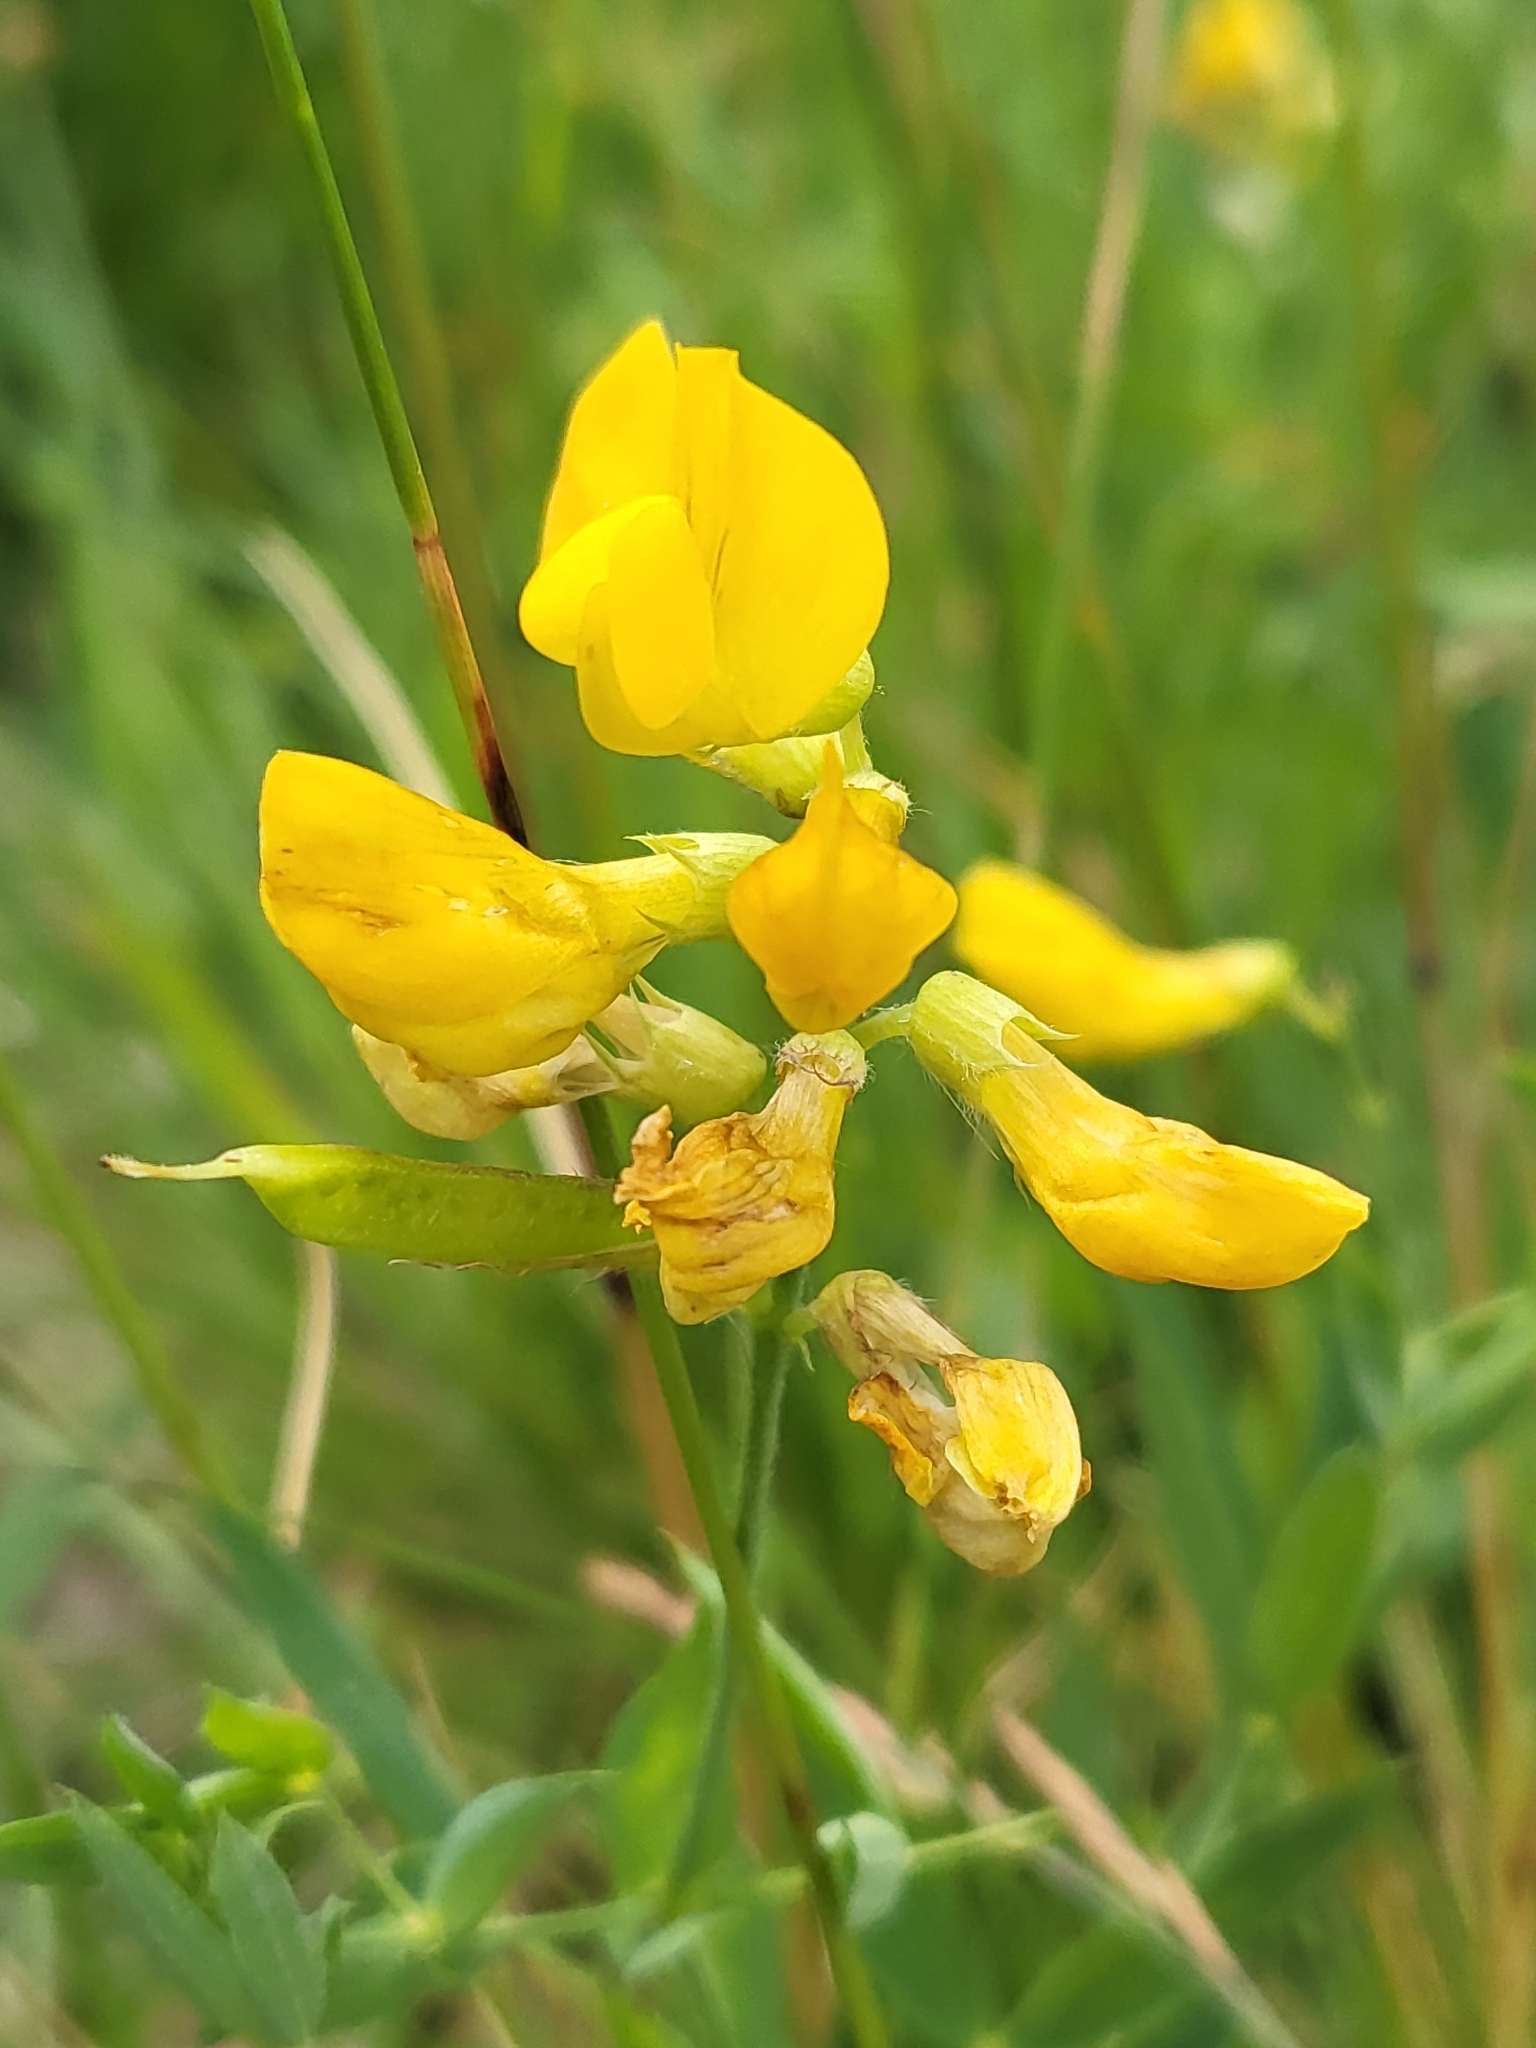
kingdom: Plantae
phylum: Tracheophyta
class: Magnoliopsida
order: Fabales
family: Fabaceae
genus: Lathyrus
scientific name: Lathyrus pratensis
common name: Meadow vetchling
